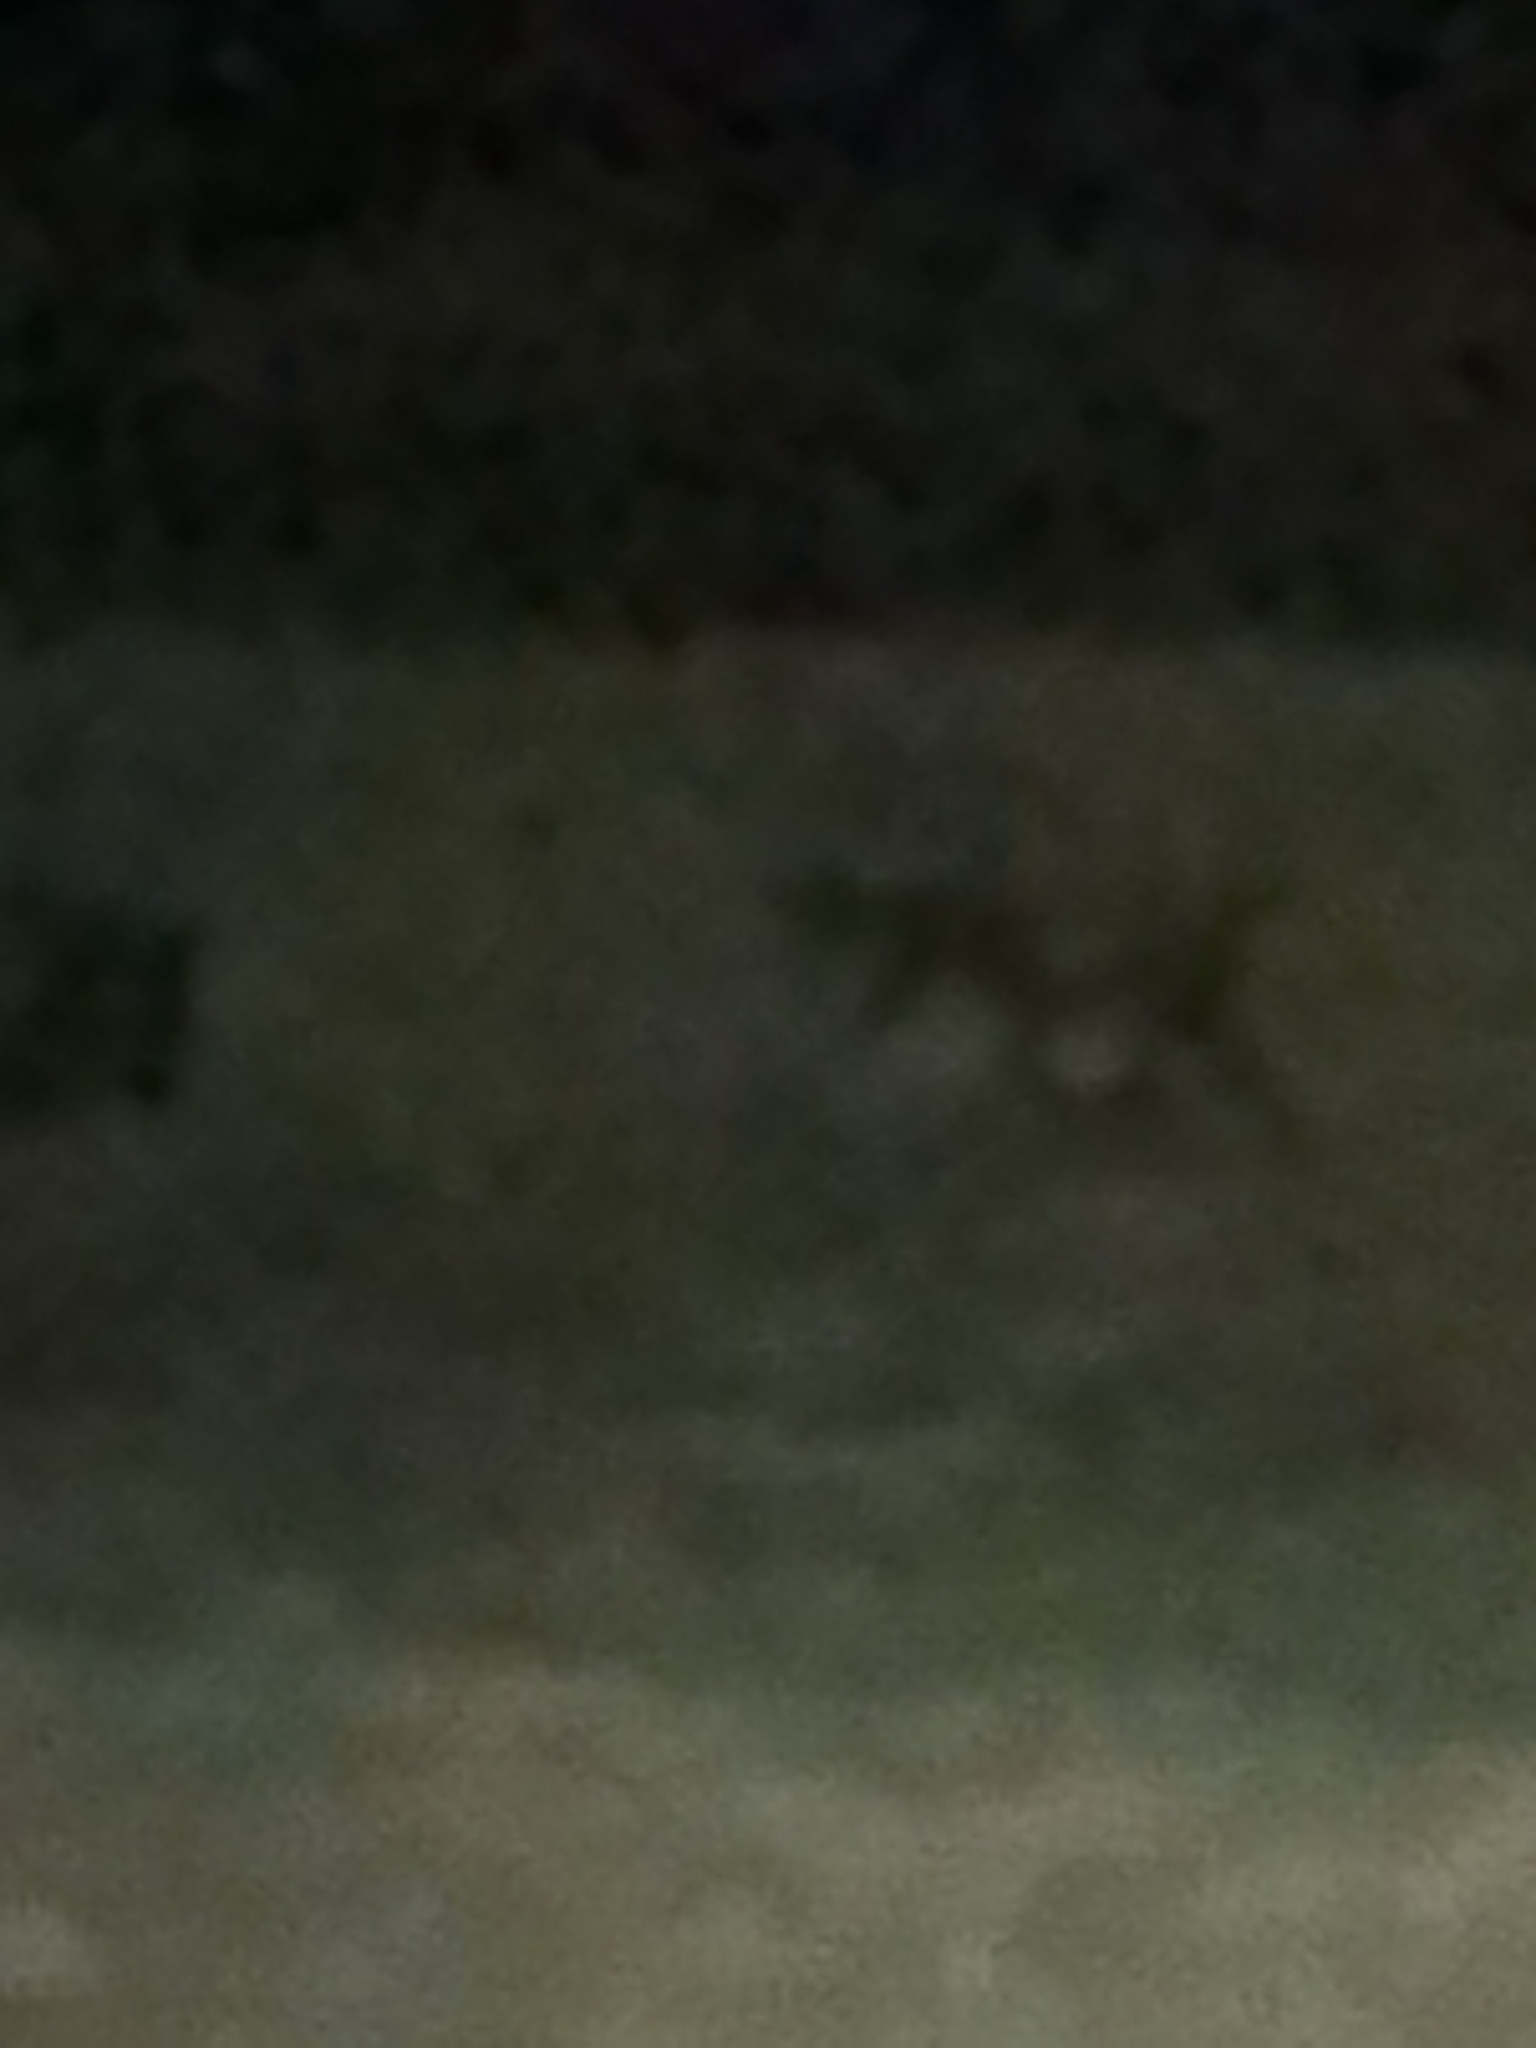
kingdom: Animalia
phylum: Chordata
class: Mammalia
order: Artiodactyla
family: Suidae
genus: Sus
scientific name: Sus scrofa
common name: Wild boar
